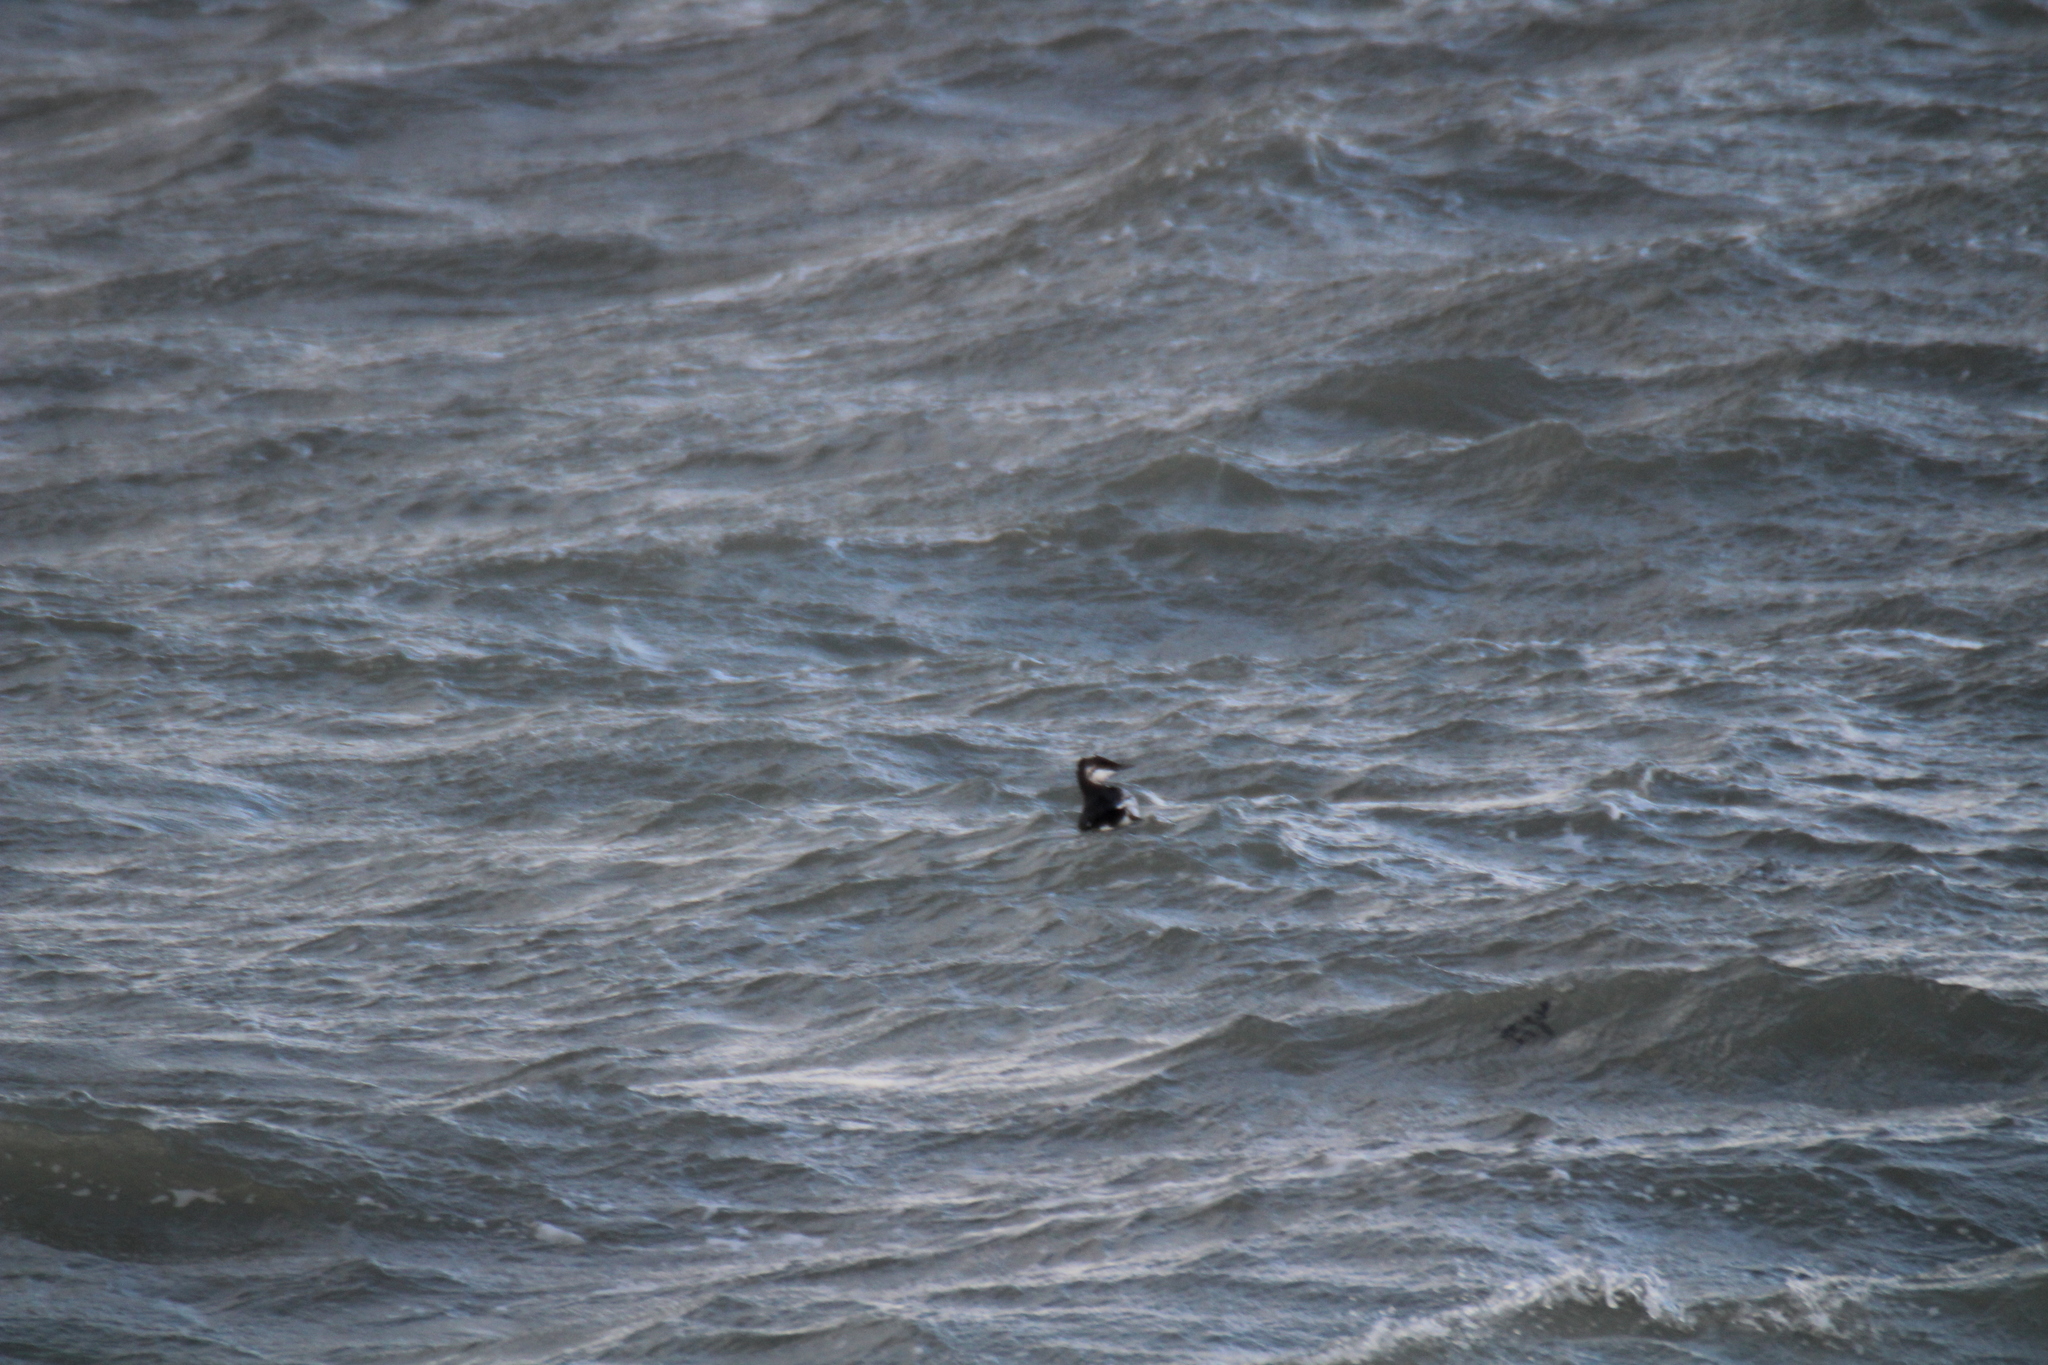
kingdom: Animalia
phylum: Chordata
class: Aves
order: Charadriiformes
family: Alcidae
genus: Uria
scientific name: Uria aalge
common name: Common murre
